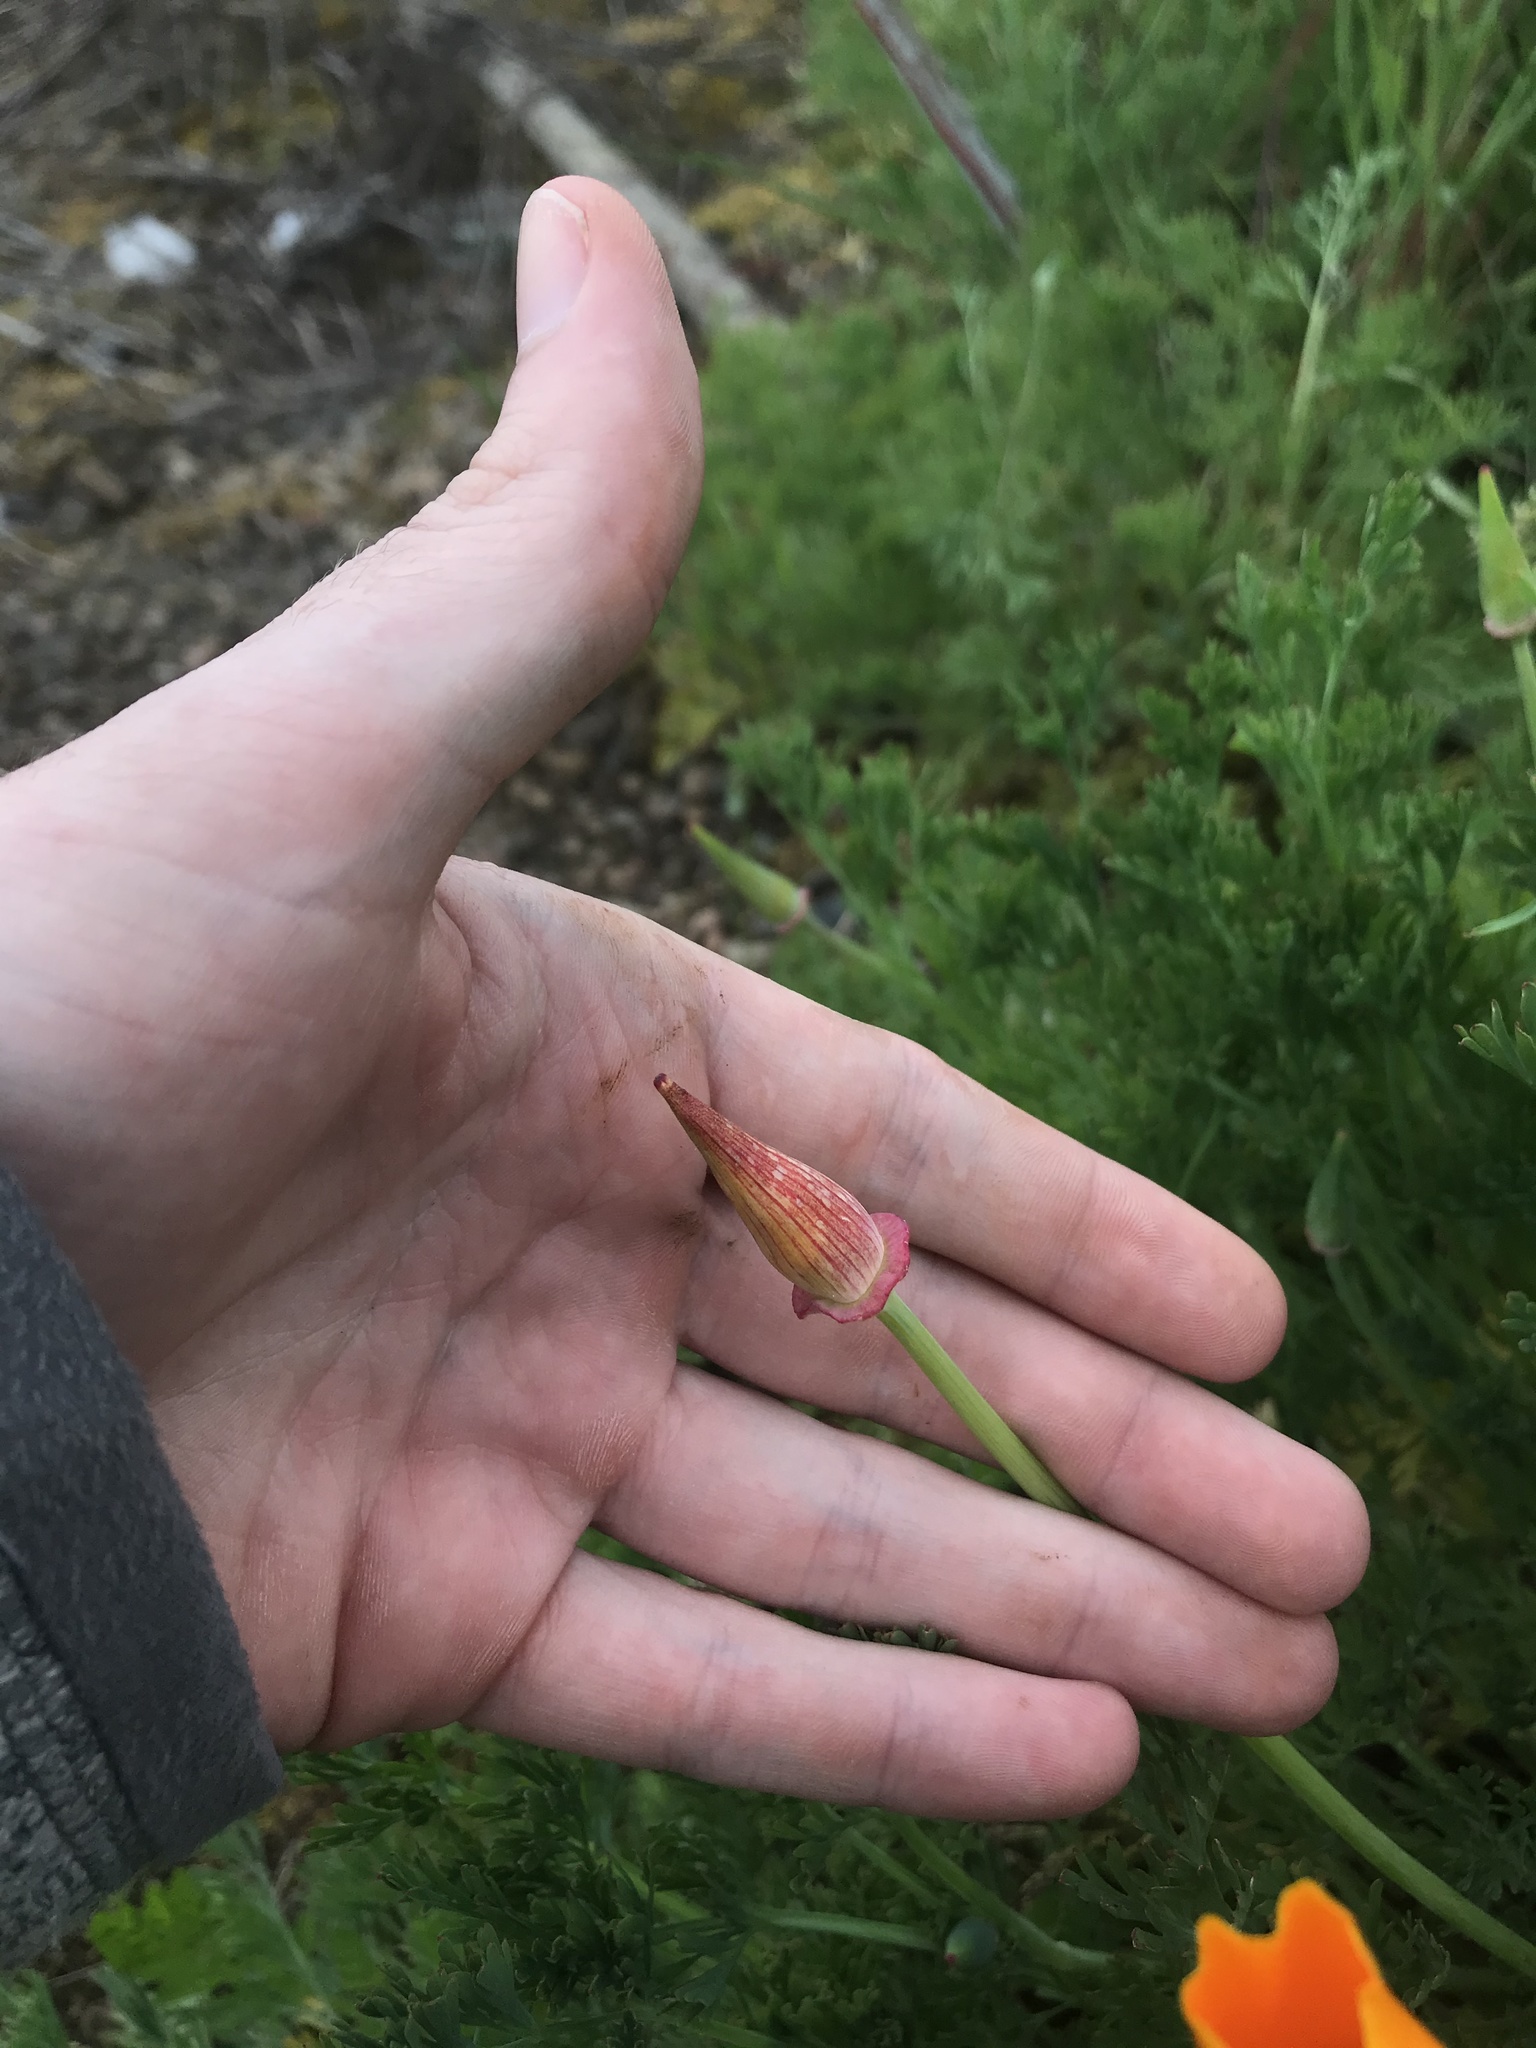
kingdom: Plantae
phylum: Tracheophyta
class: Magnoliopsida
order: Ranunculales
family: Papaveraceae
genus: Eschscholzia
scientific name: Eschscholzia californica
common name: California poppy
